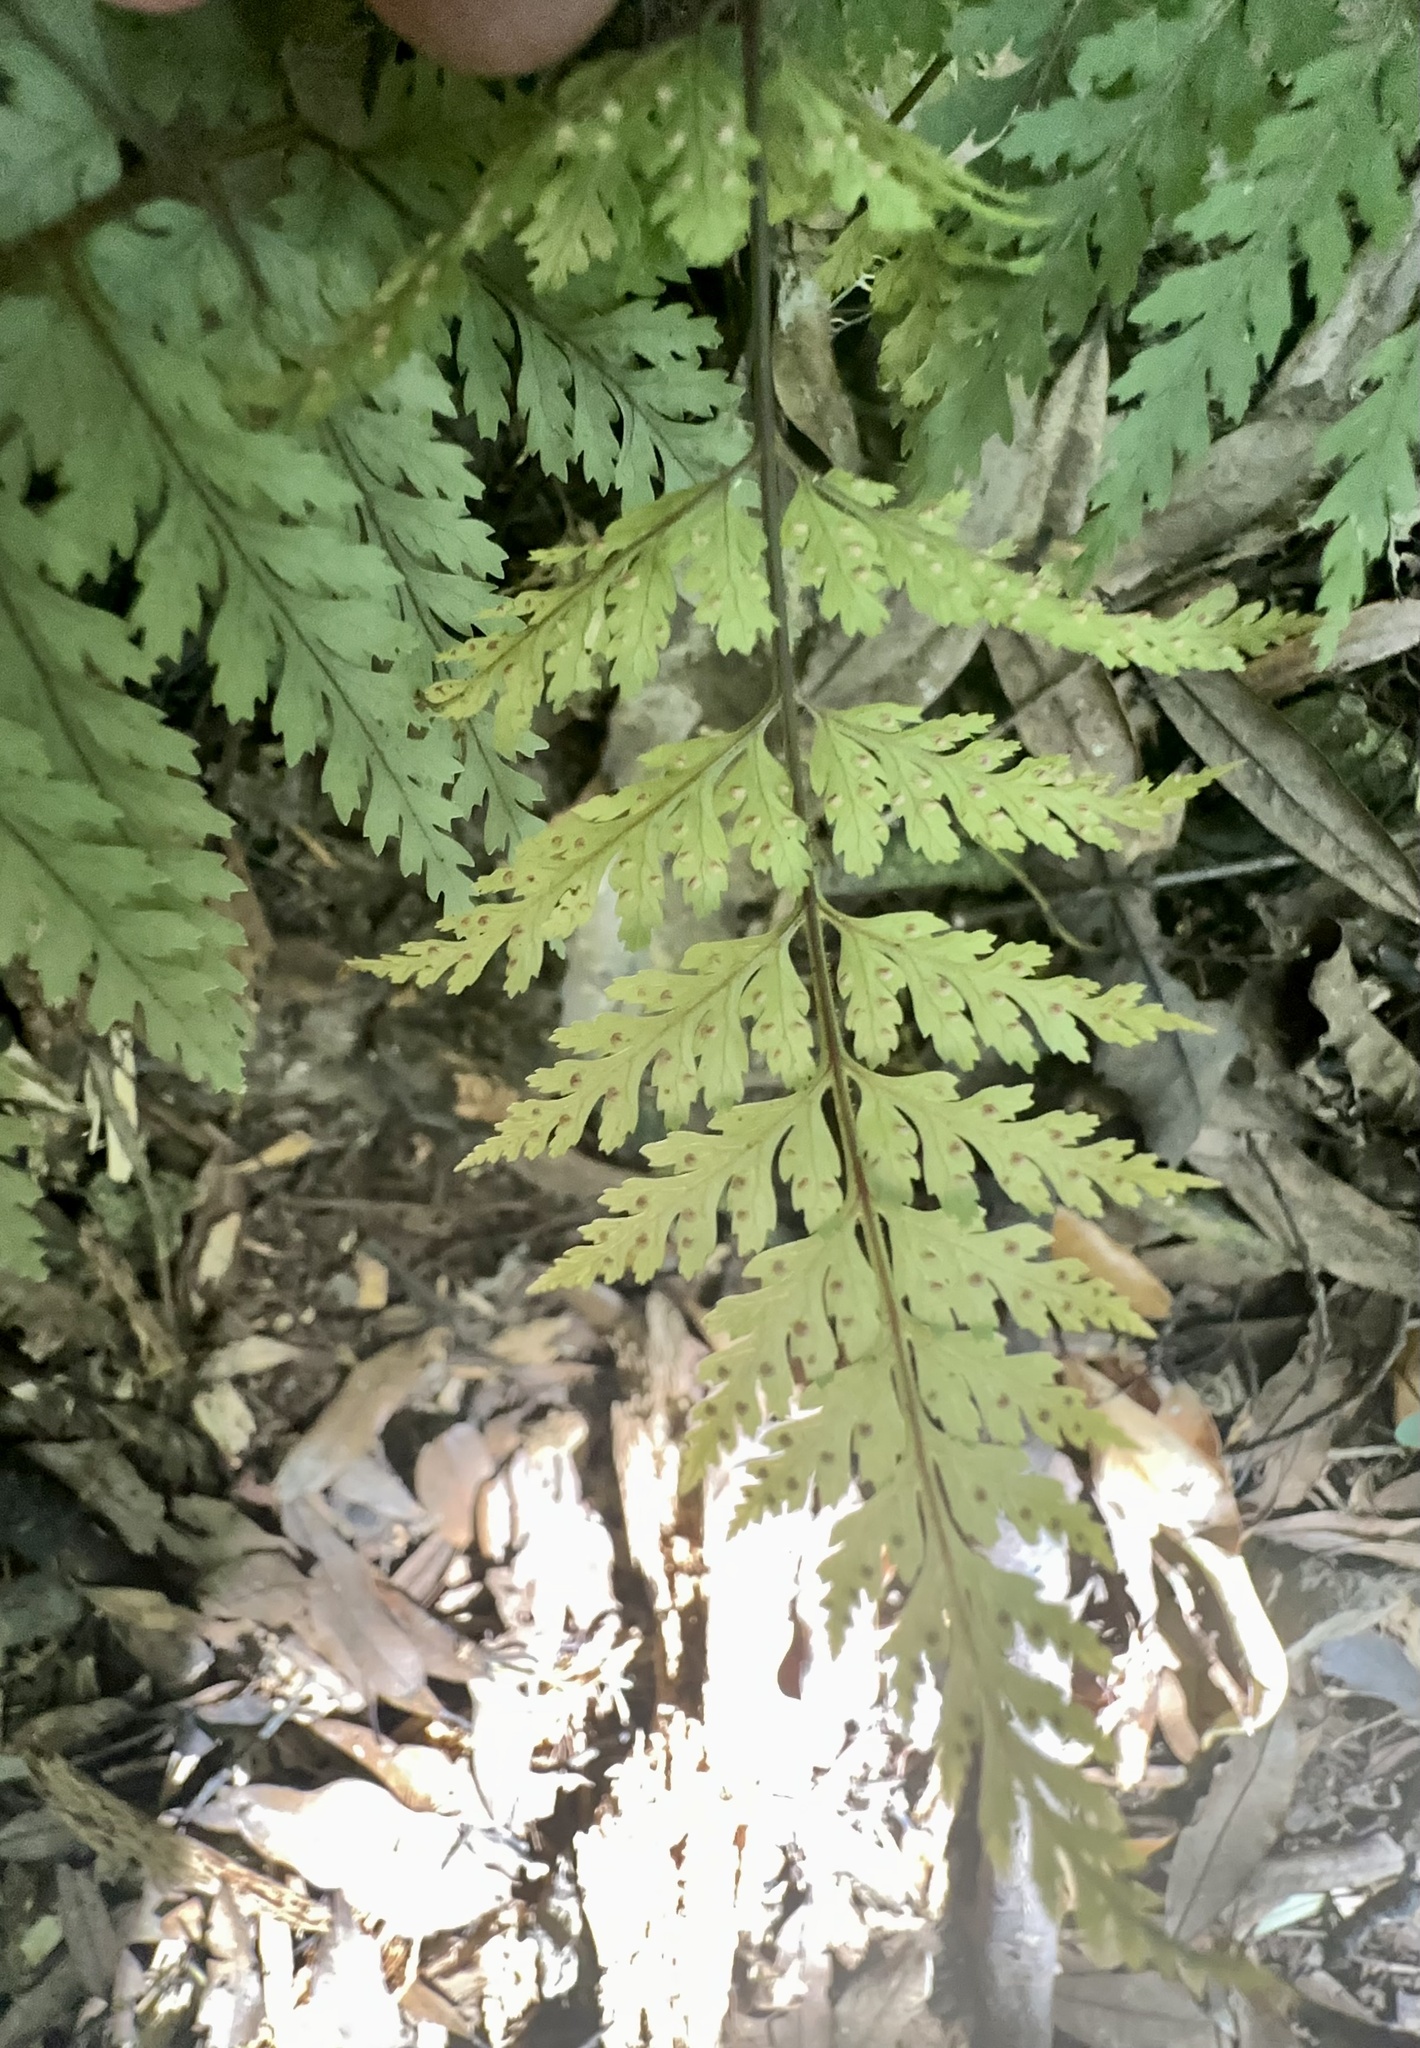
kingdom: Plantae
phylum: Tracheophyta
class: Polypodiopsida
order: Polypodiales
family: Dryopteridaceae
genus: Parapolystichum
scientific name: Parapolystichum glabellum
